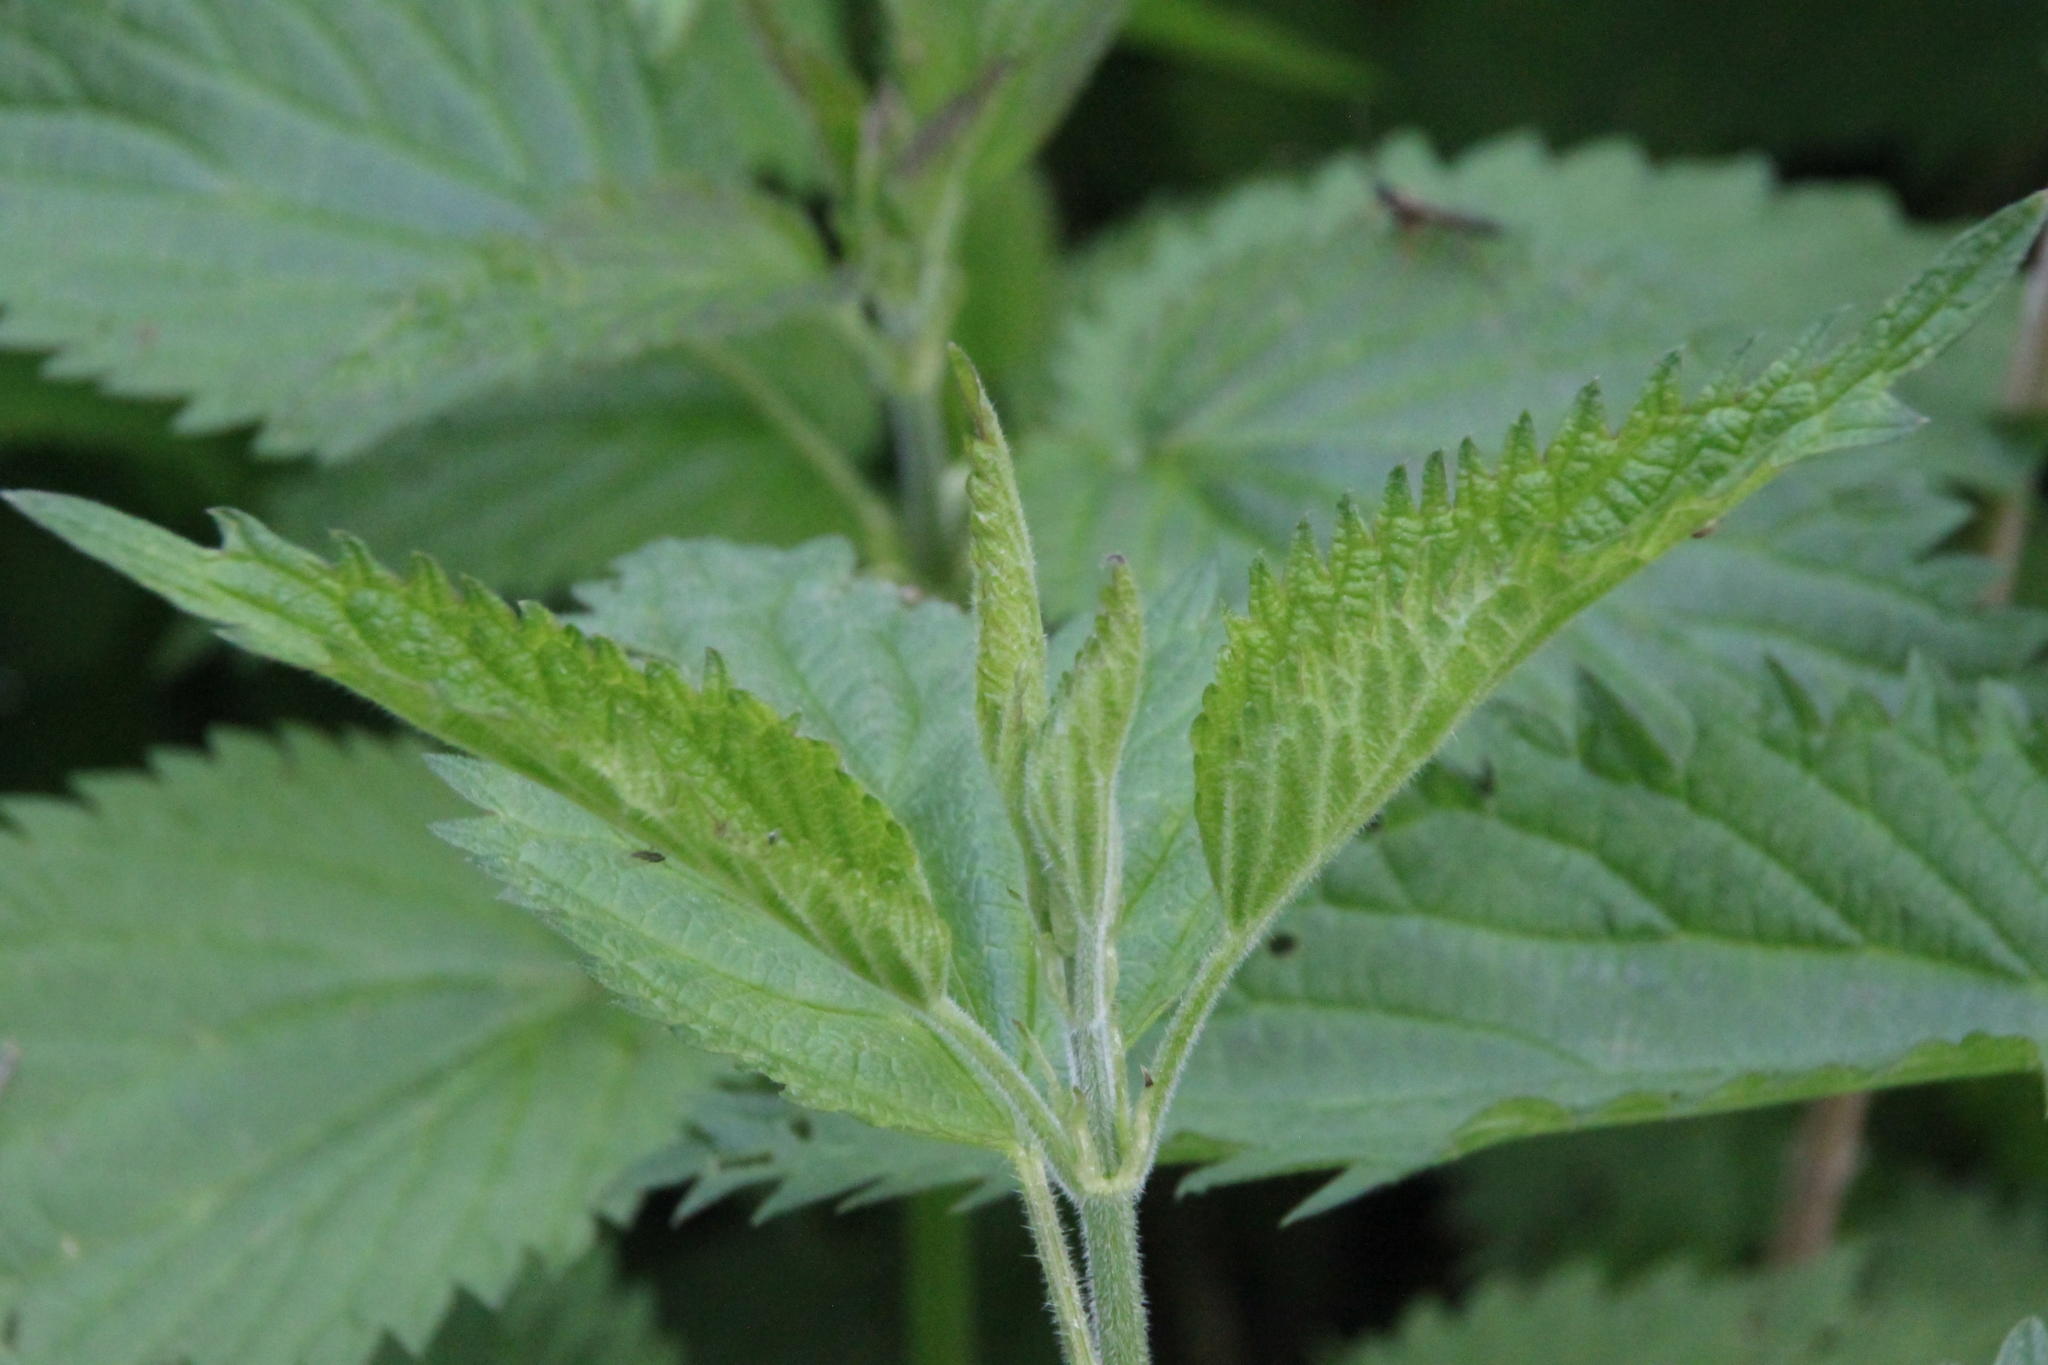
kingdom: Plantae
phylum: Tracheophyta
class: Magnoliopsida
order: Rosales
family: Urticaceae
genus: Urtica
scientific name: Urtica dioica
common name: Common nettle
